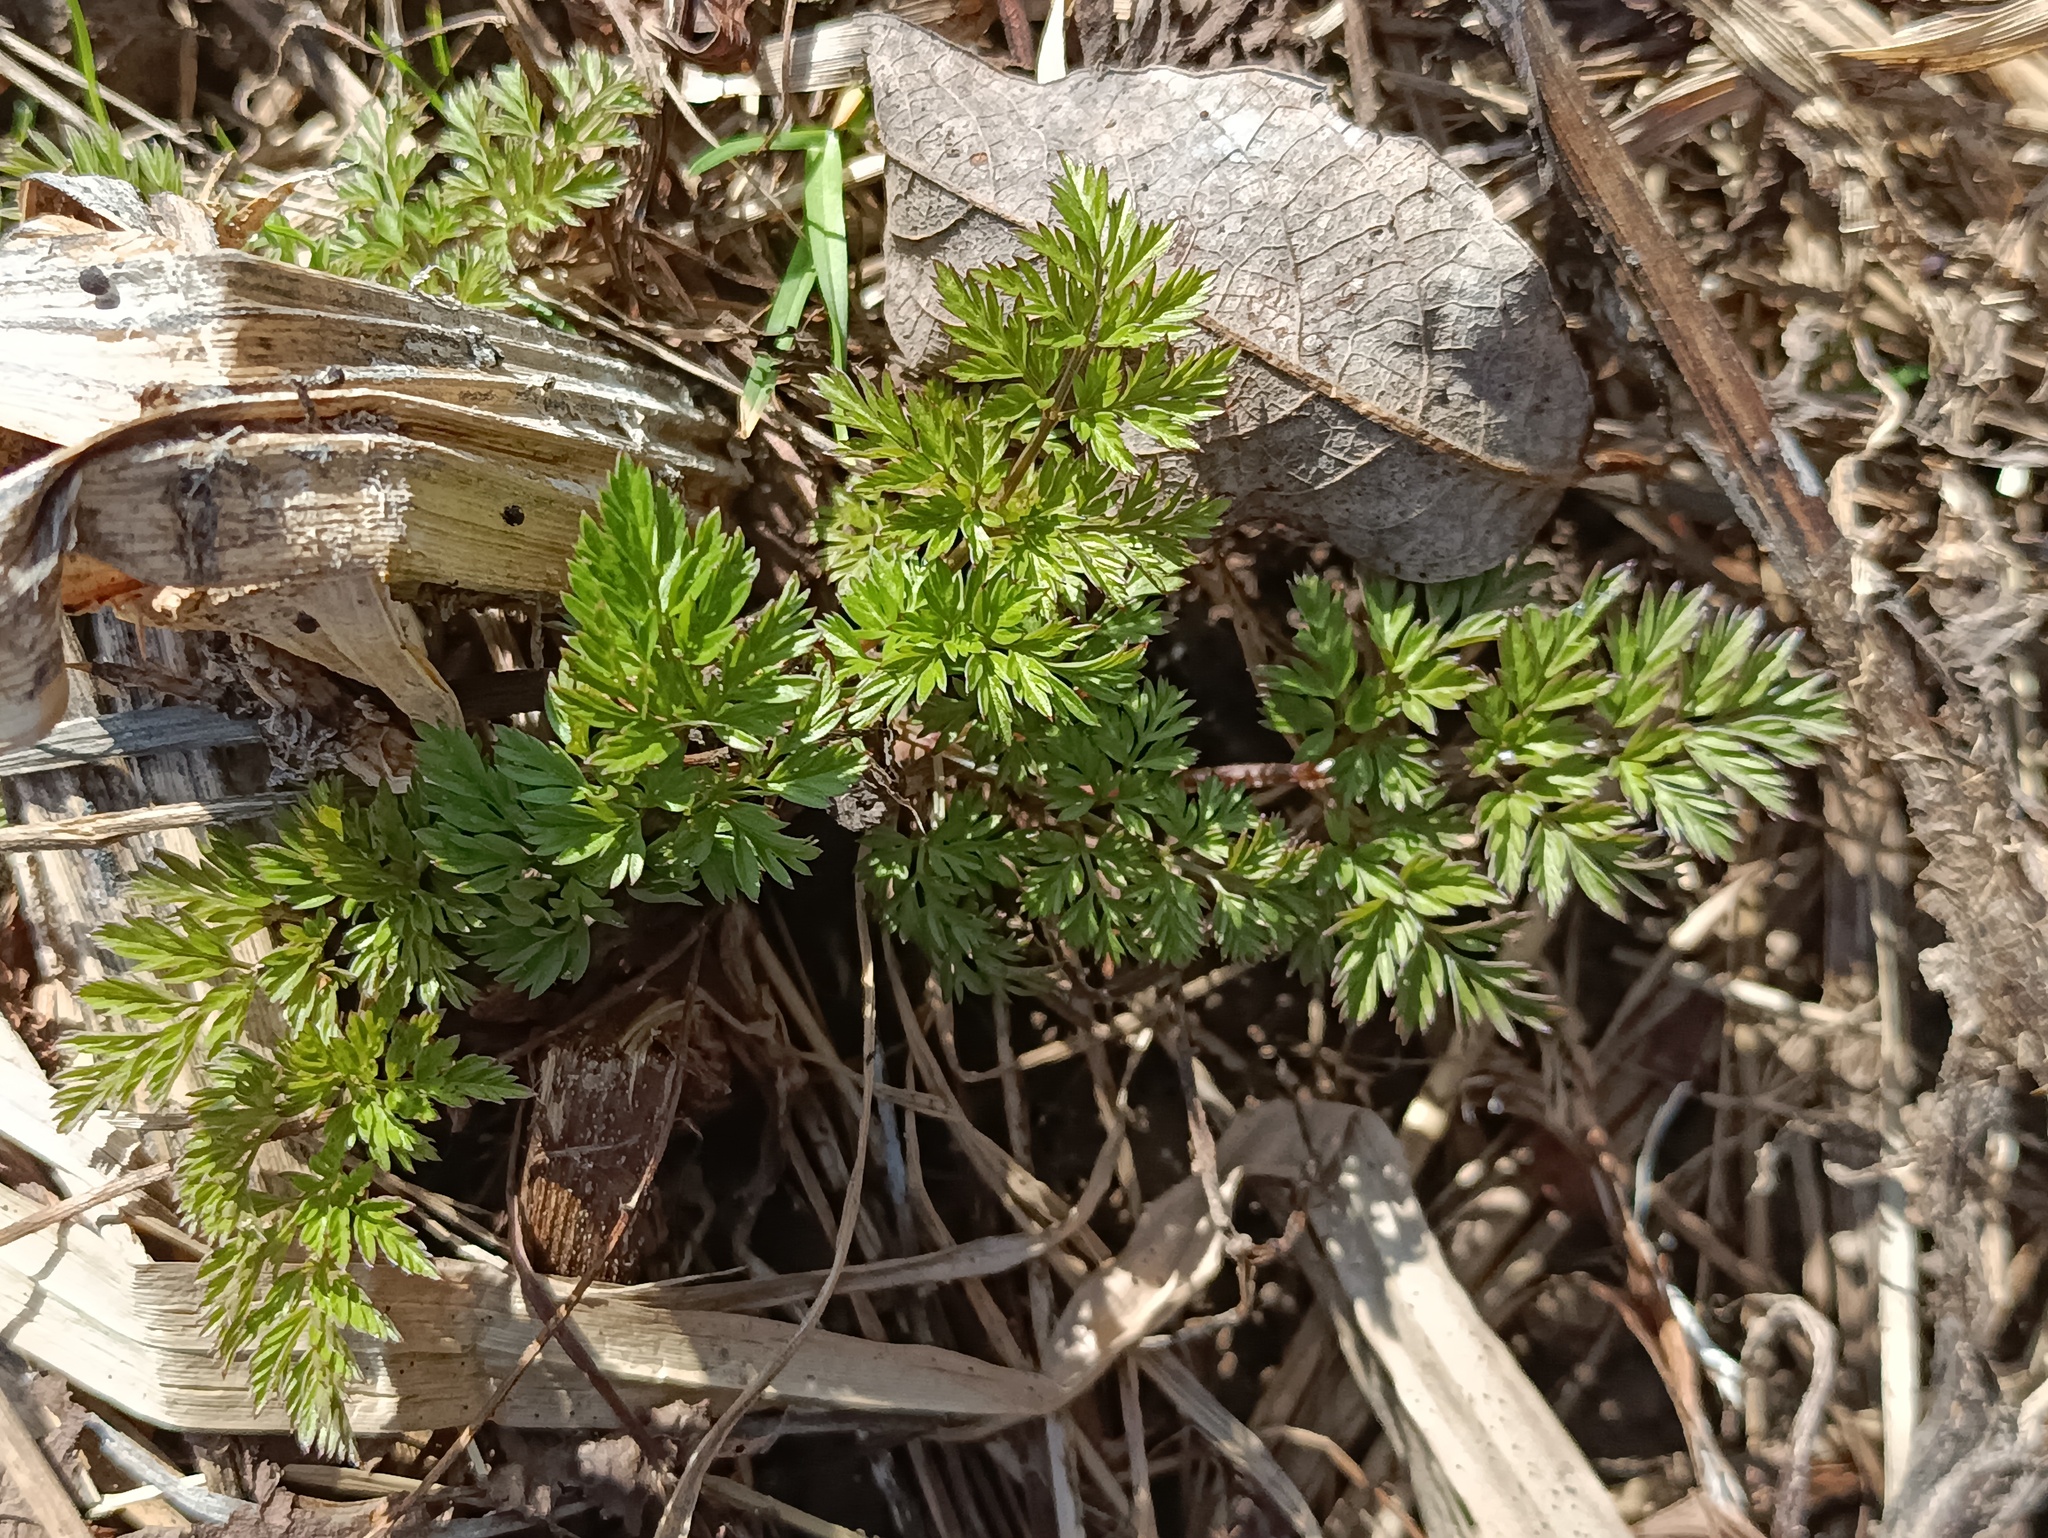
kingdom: Plantae
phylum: Tracheophyta
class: Magnoliopsida
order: Apiales
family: Apiaceae
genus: Anthriscus
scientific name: Anthriscus sylvestris
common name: Cow parsley
